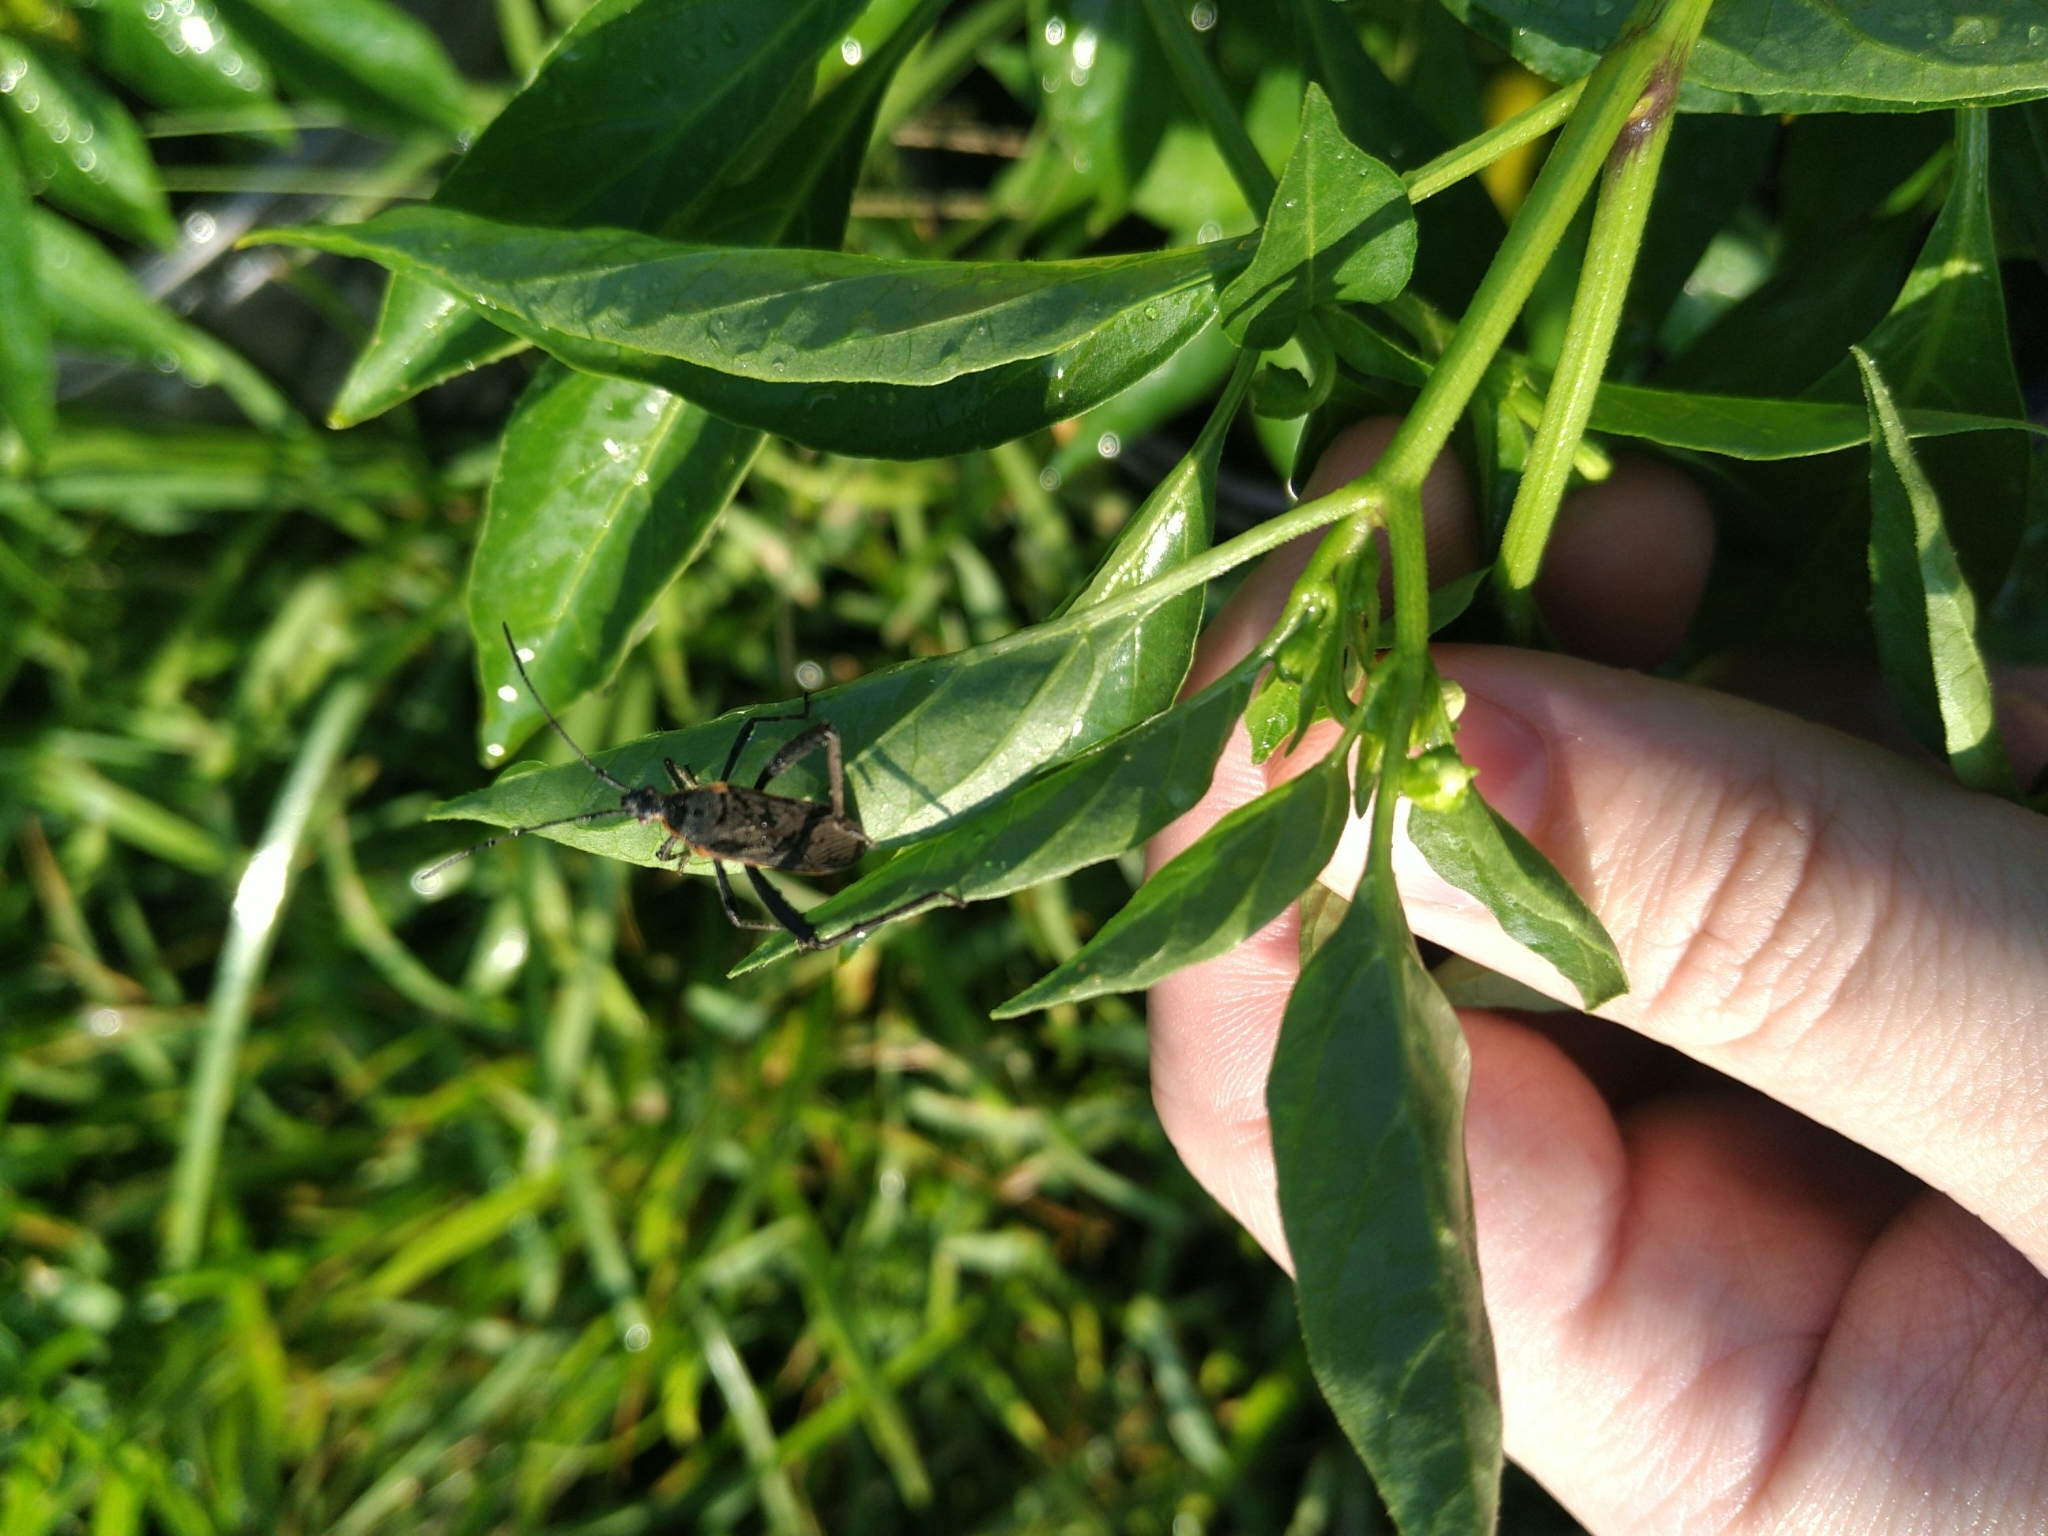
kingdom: Animalia
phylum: Arthropoda
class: Insecta
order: Hemiptera
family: Coreidae
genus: Phthiacnemia
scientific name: Phthiacnemia picta
